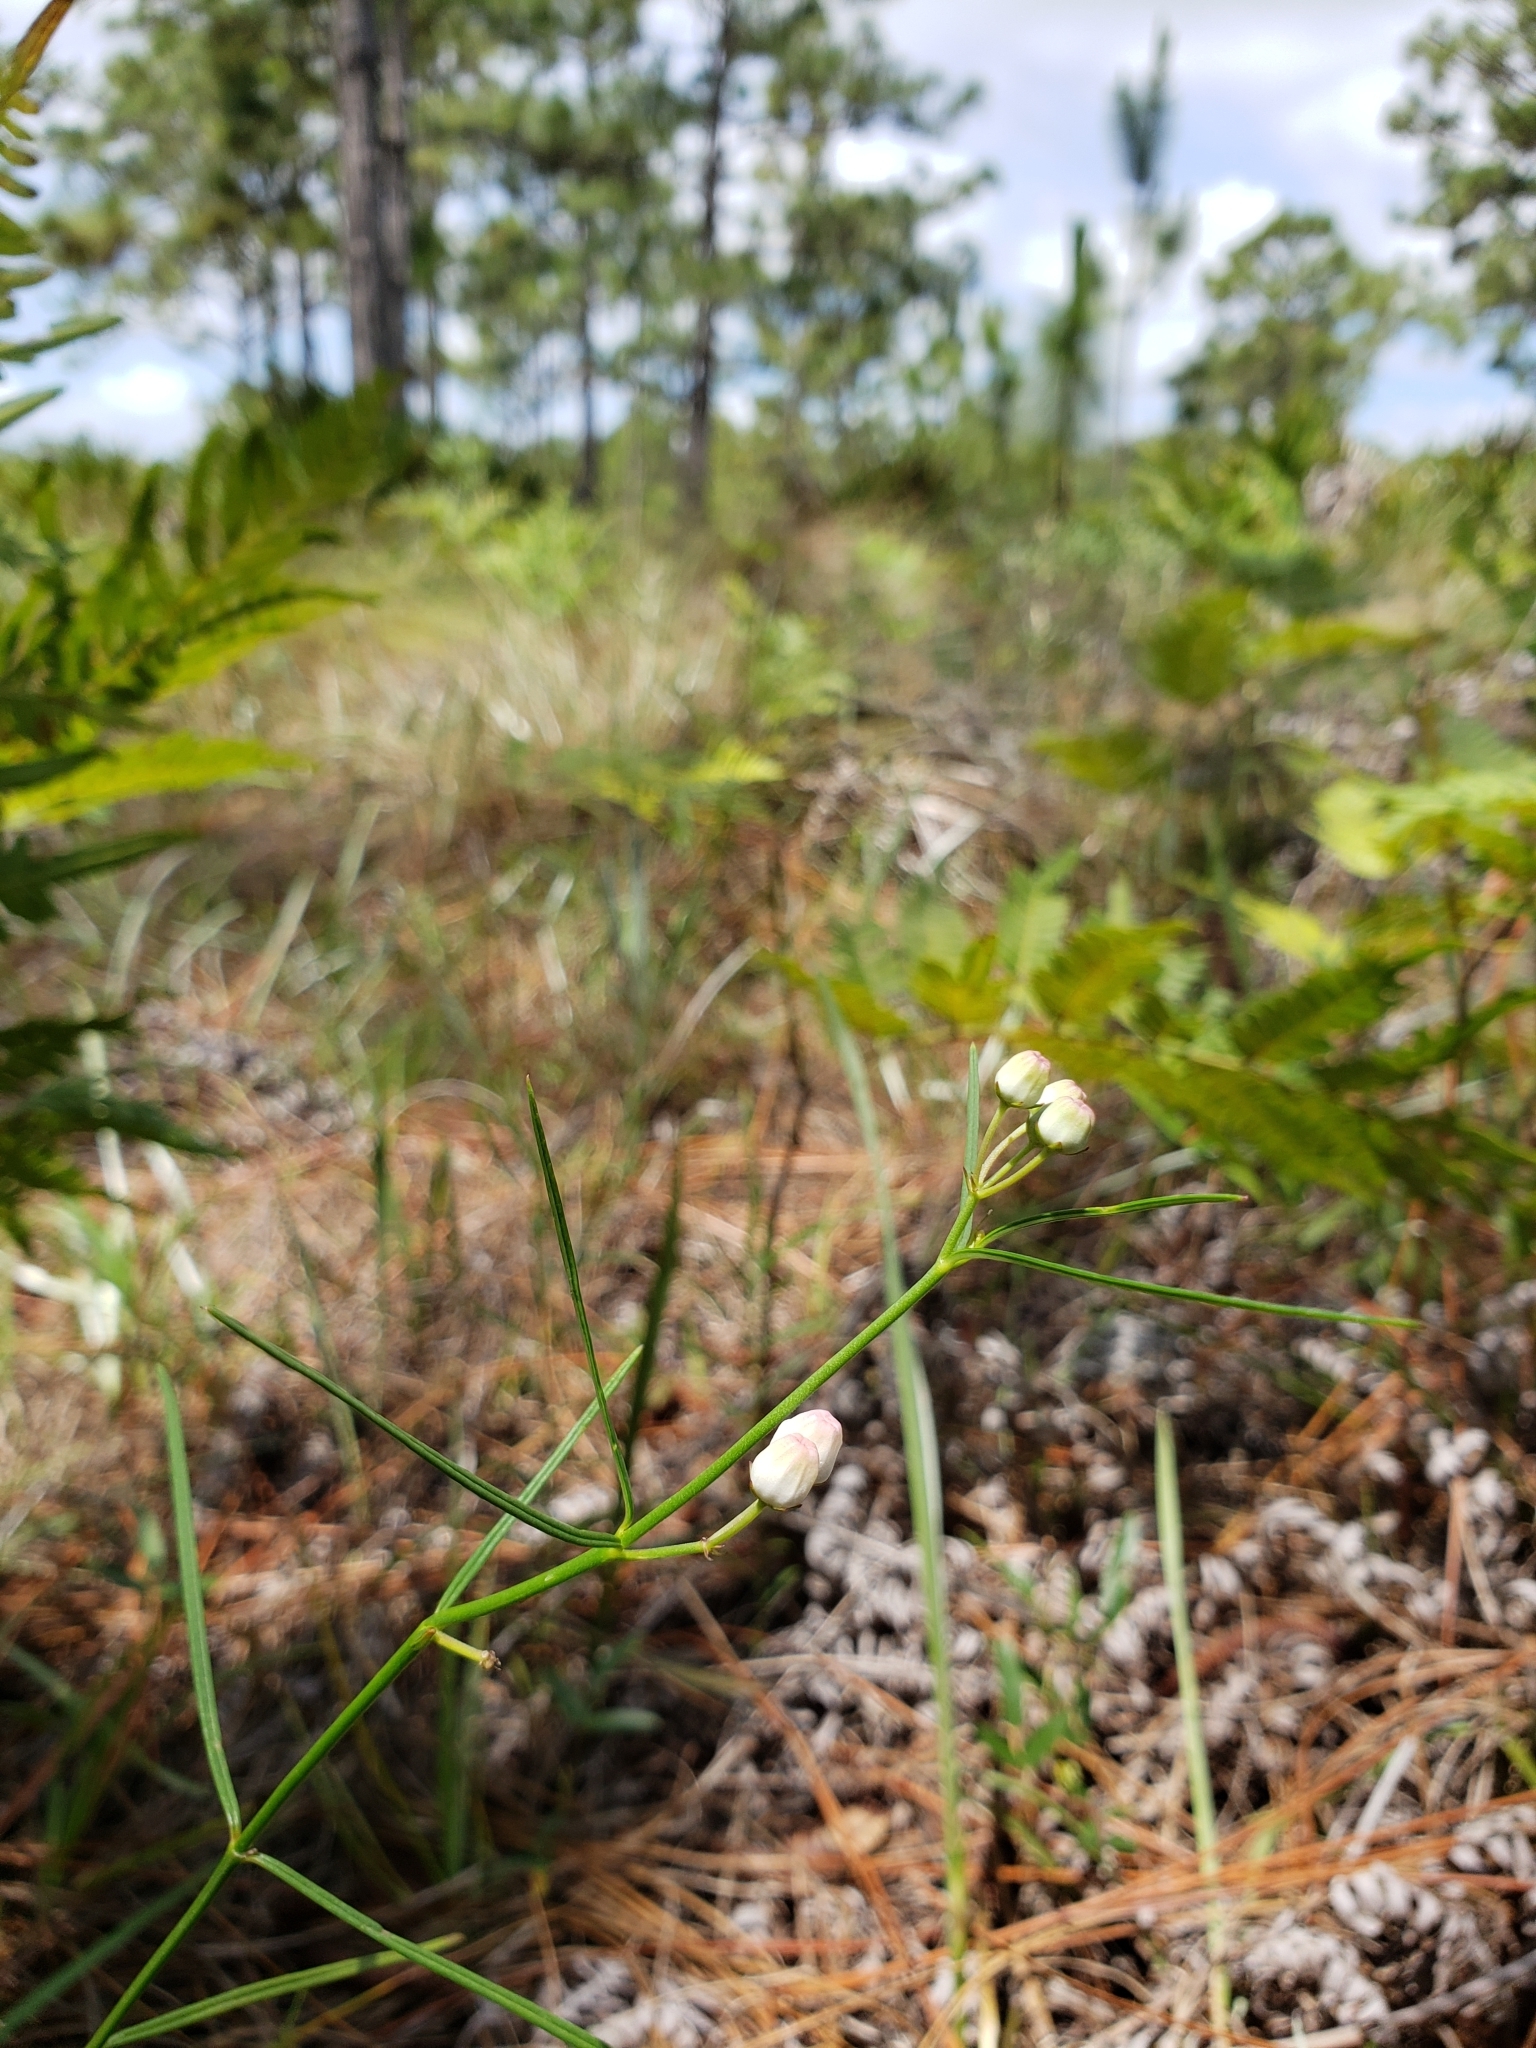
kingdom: Plantae
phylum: Tracheophyta
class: Magnoliopsida
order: Gentianales
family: Apocynaceae
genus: Asclepias
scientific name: Asclepias feayi
